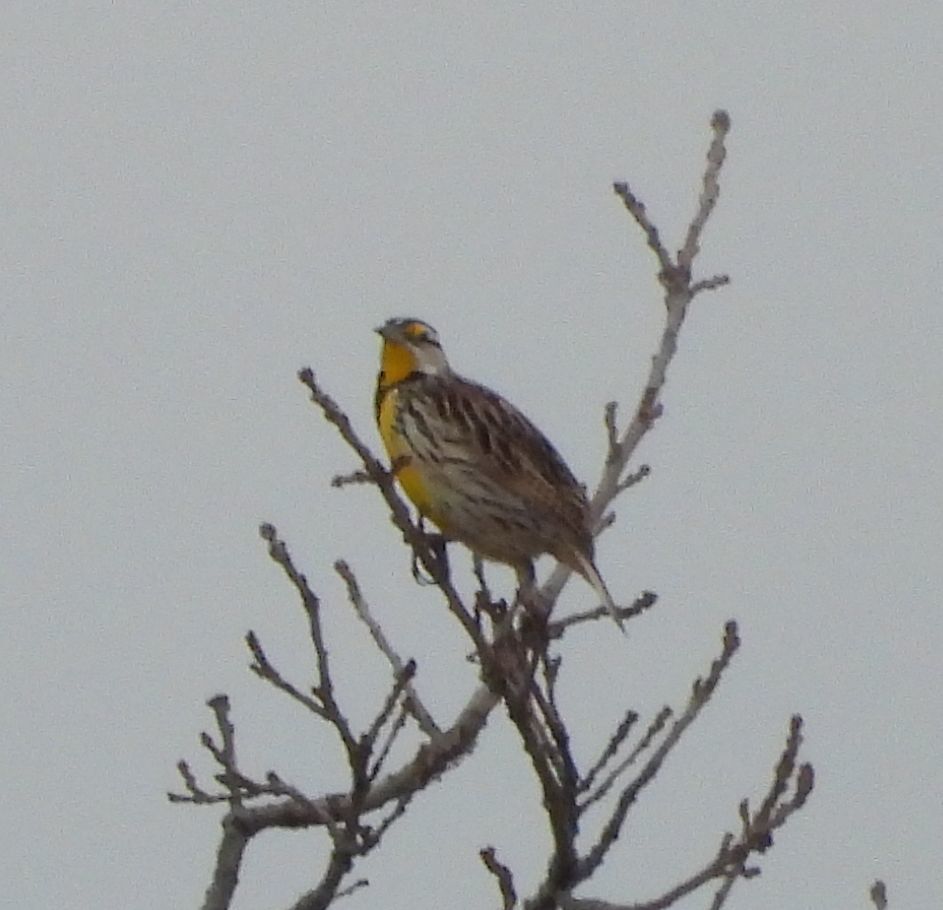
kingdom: Animalia
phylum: Chordata
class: Aves
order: Passeriformes
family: Icteridae
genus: Sturnella
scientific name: Sturnella magna
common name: Eastern meadowlark
